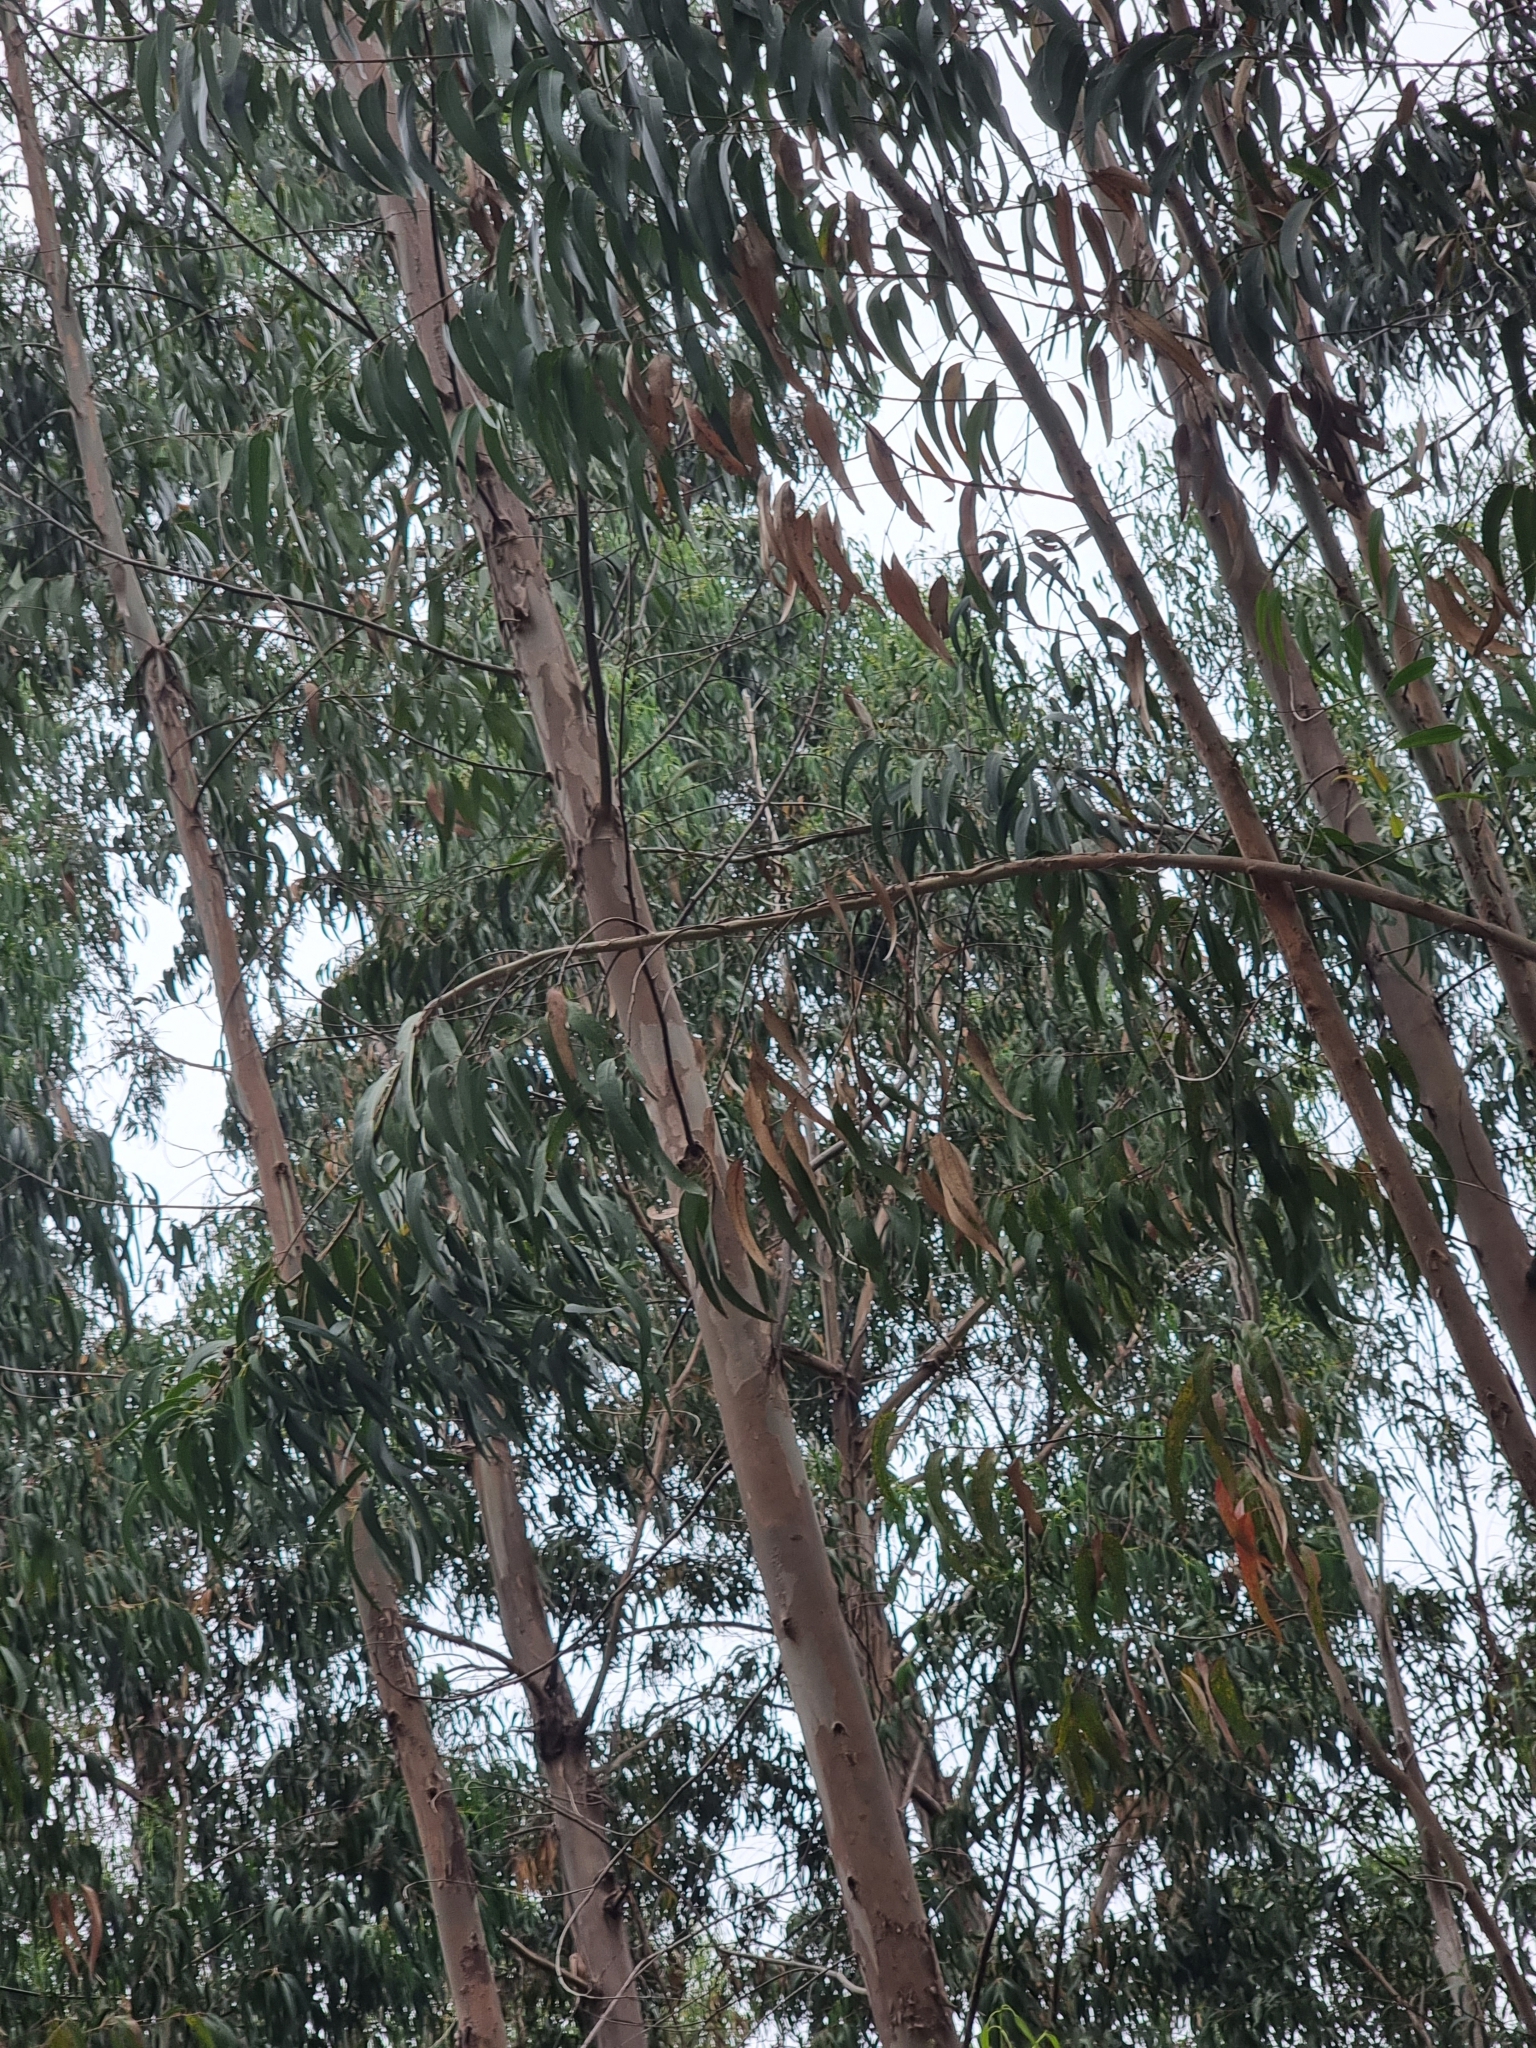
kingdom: Plantae
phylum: Tracheophyta
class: Magnoliopsida
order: Myrtales
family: Myrtaceae
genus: Eucalyptus
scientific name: Eucalyptus globulus
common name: Southern blue-gum
